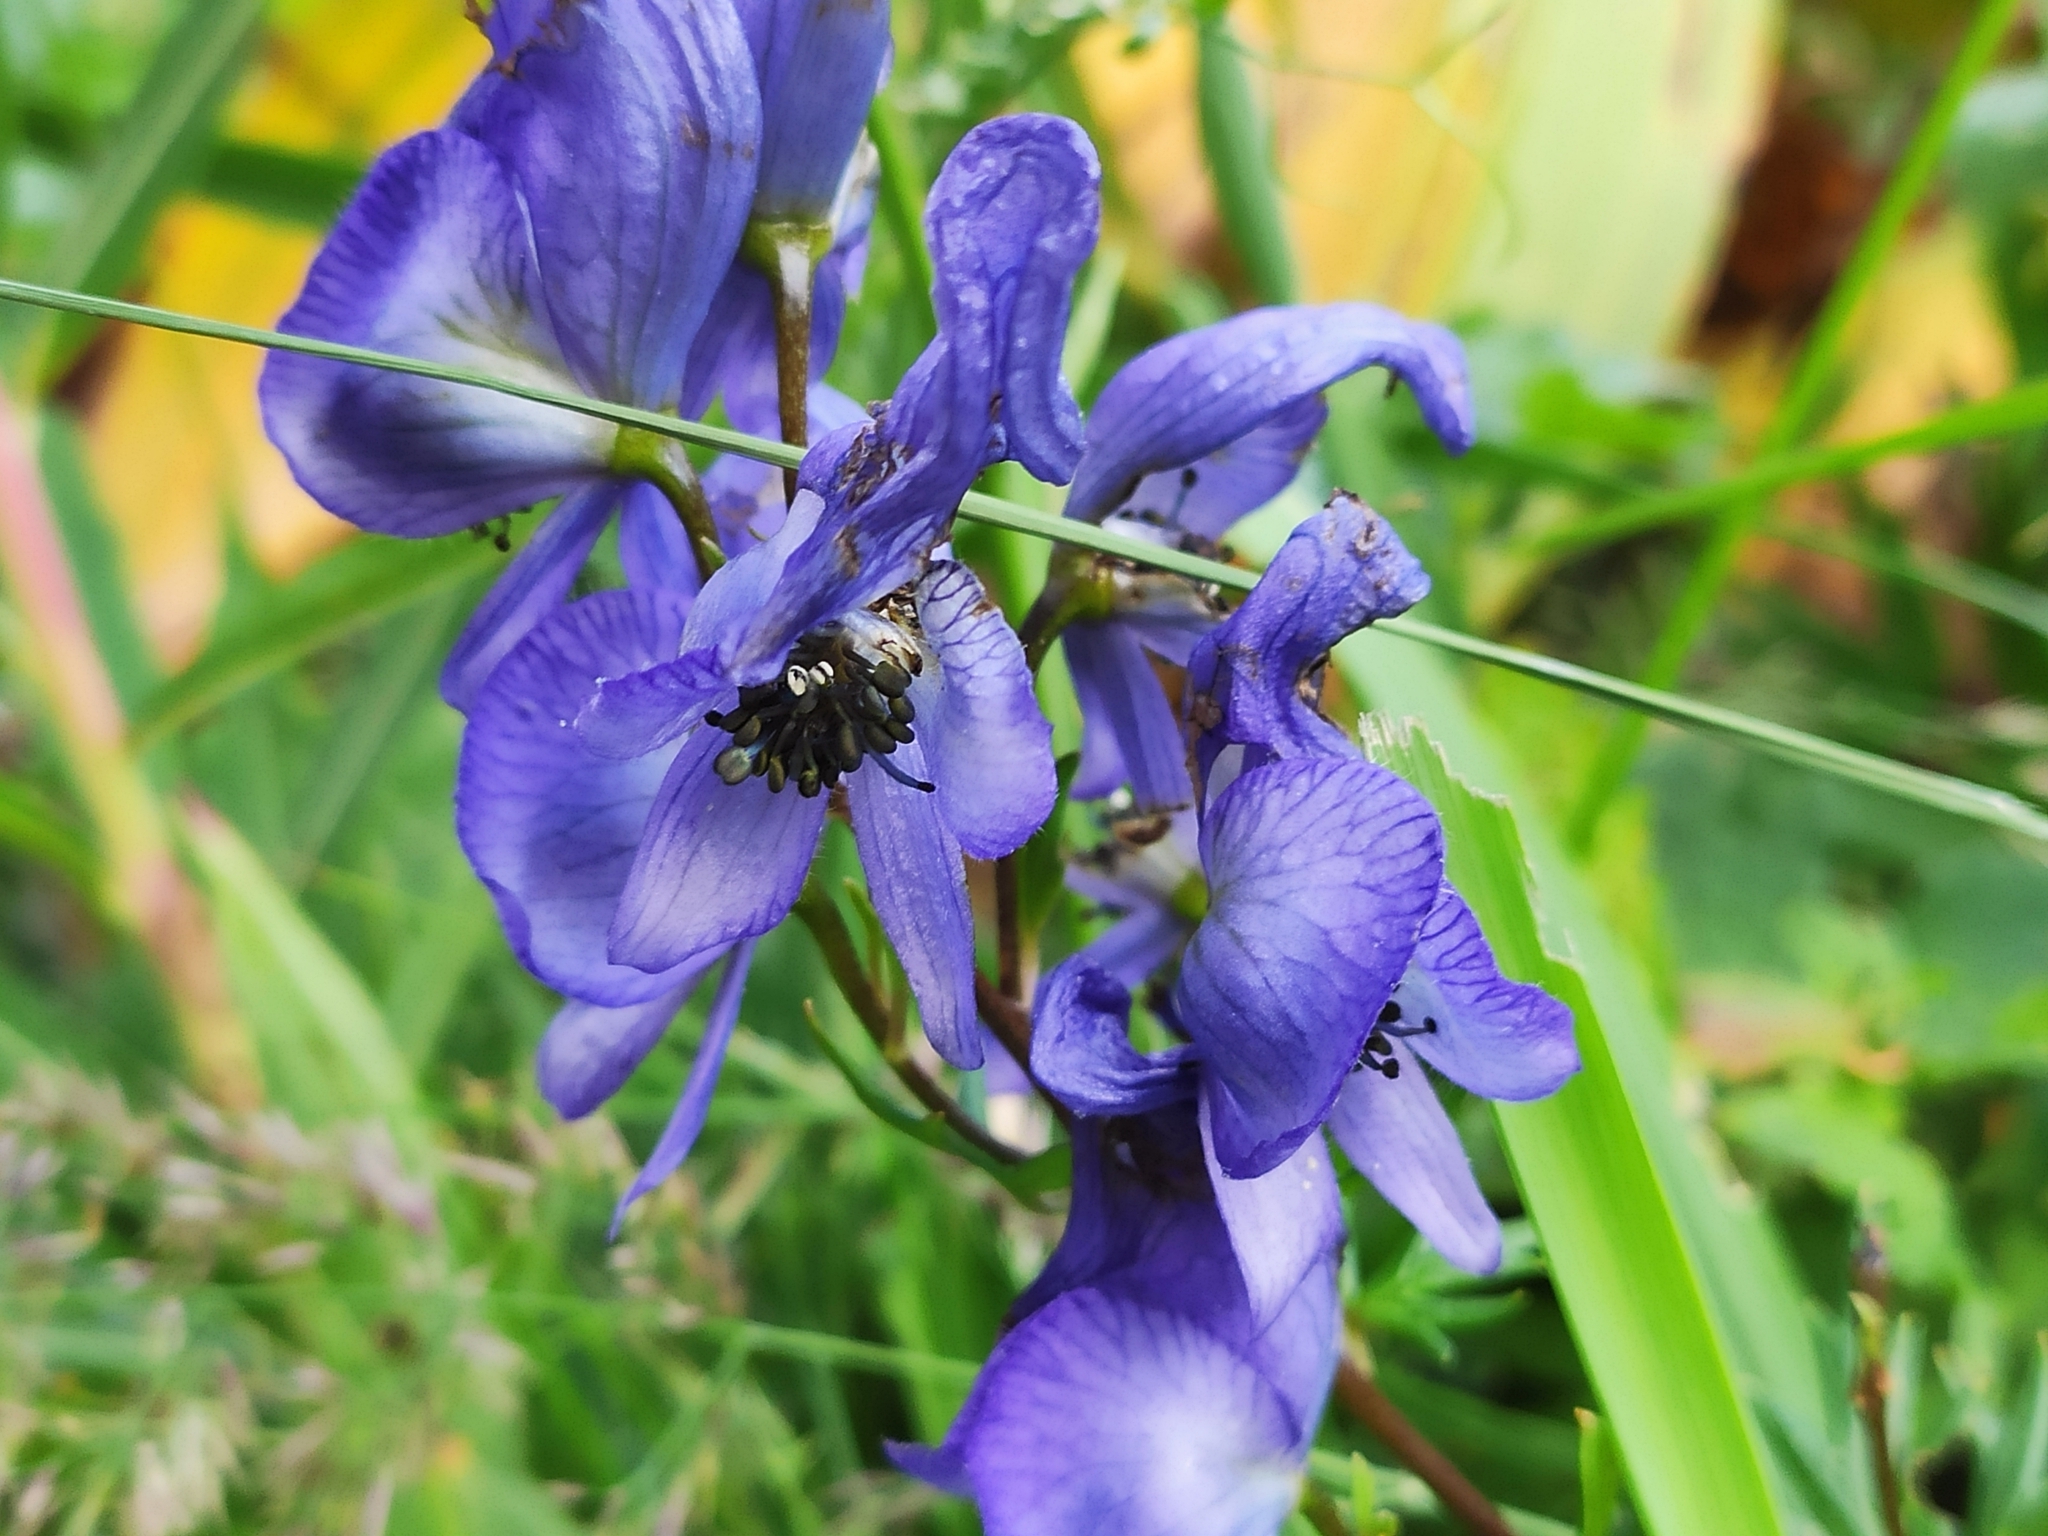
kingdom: Plantae
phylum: Tracheophyta
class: Magnoliopsida
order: Ranunculales
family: Ranunculaceae
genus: Aconitum
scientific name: Aconitum
